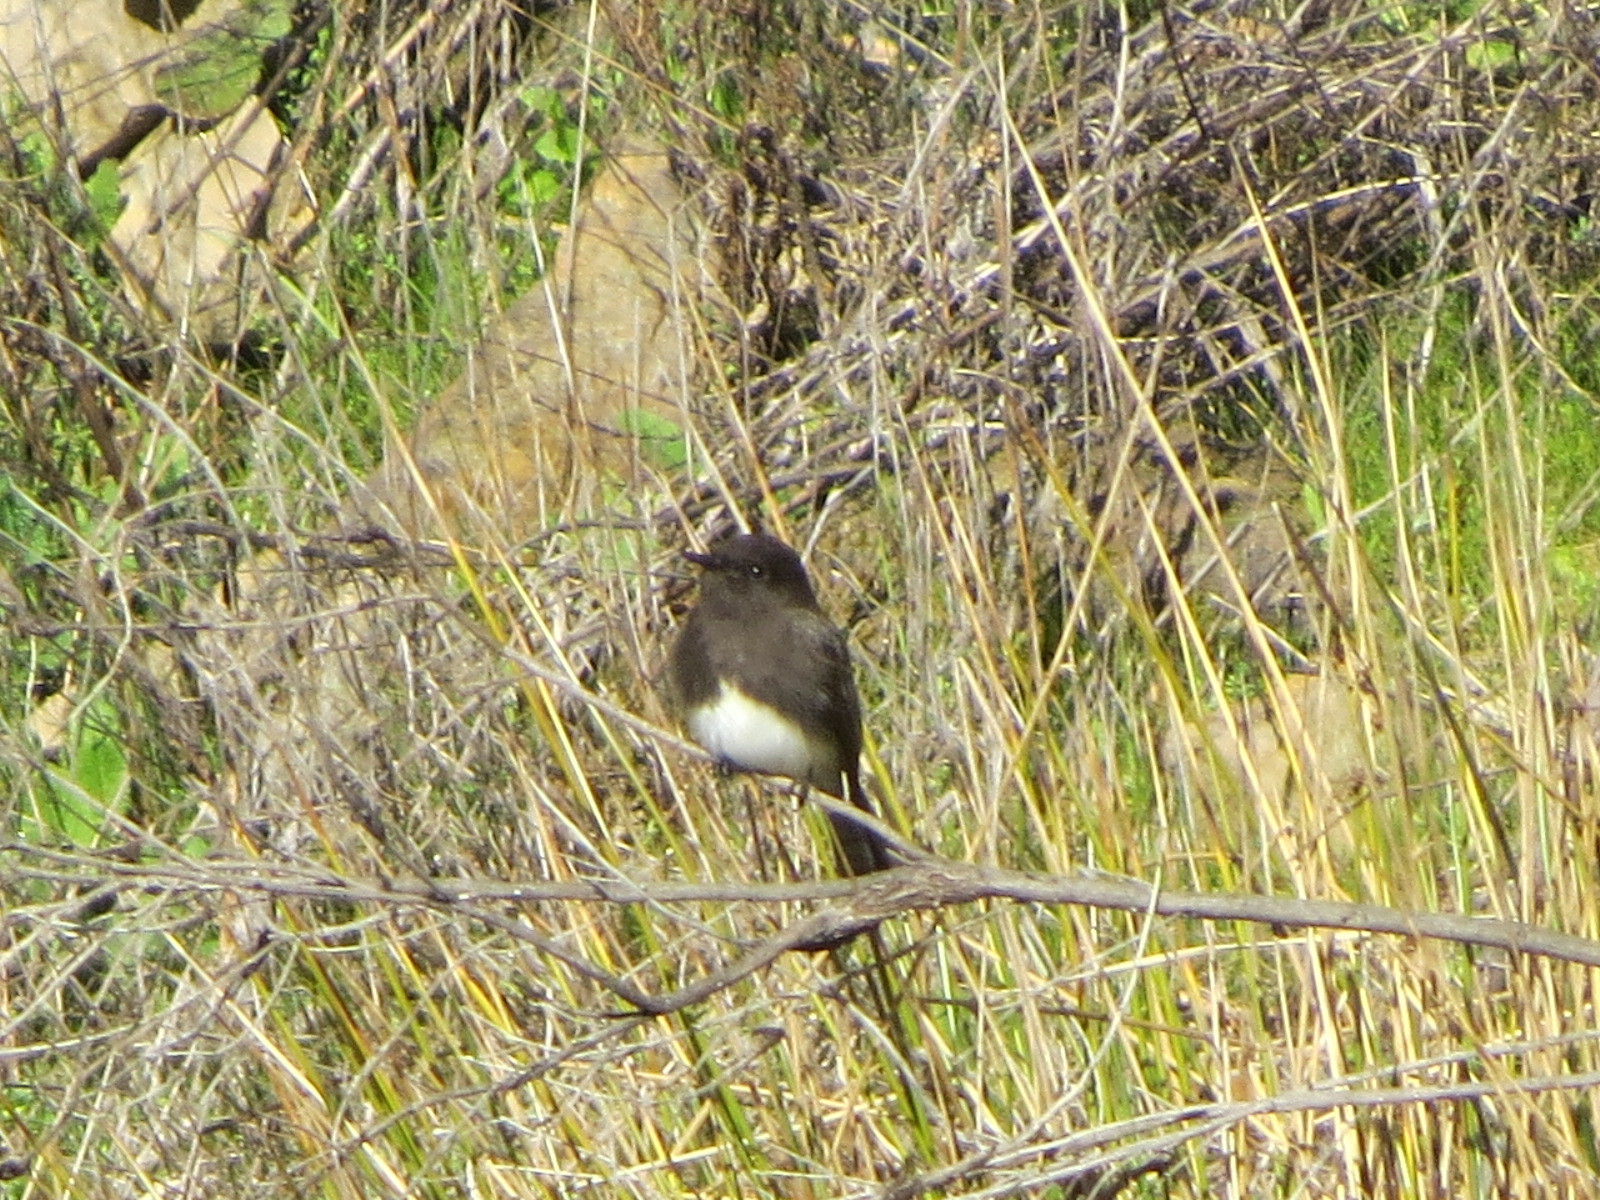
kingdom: Animalia
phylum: Chordata
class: Aves
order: Passeriformes
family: Tyrannidae
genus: Sayornis
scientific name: Sayornis nigricans
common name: Black phoebe
